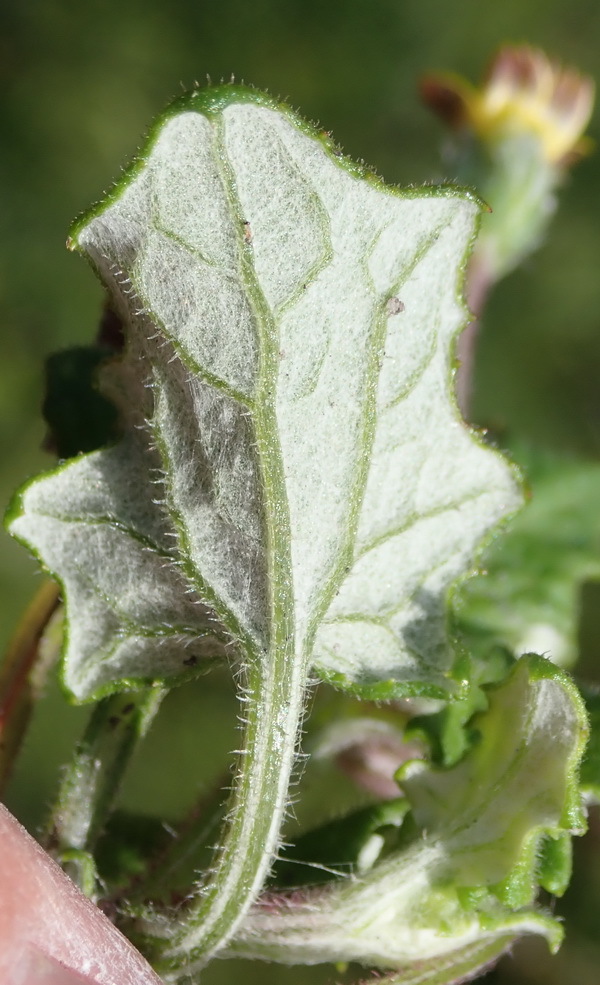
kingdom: Plantae
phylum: Tracheophyta
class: Magnoliopsida
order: Asterales
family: Asteraceae
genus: Arctotis
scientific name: Arctotis perfoliata
